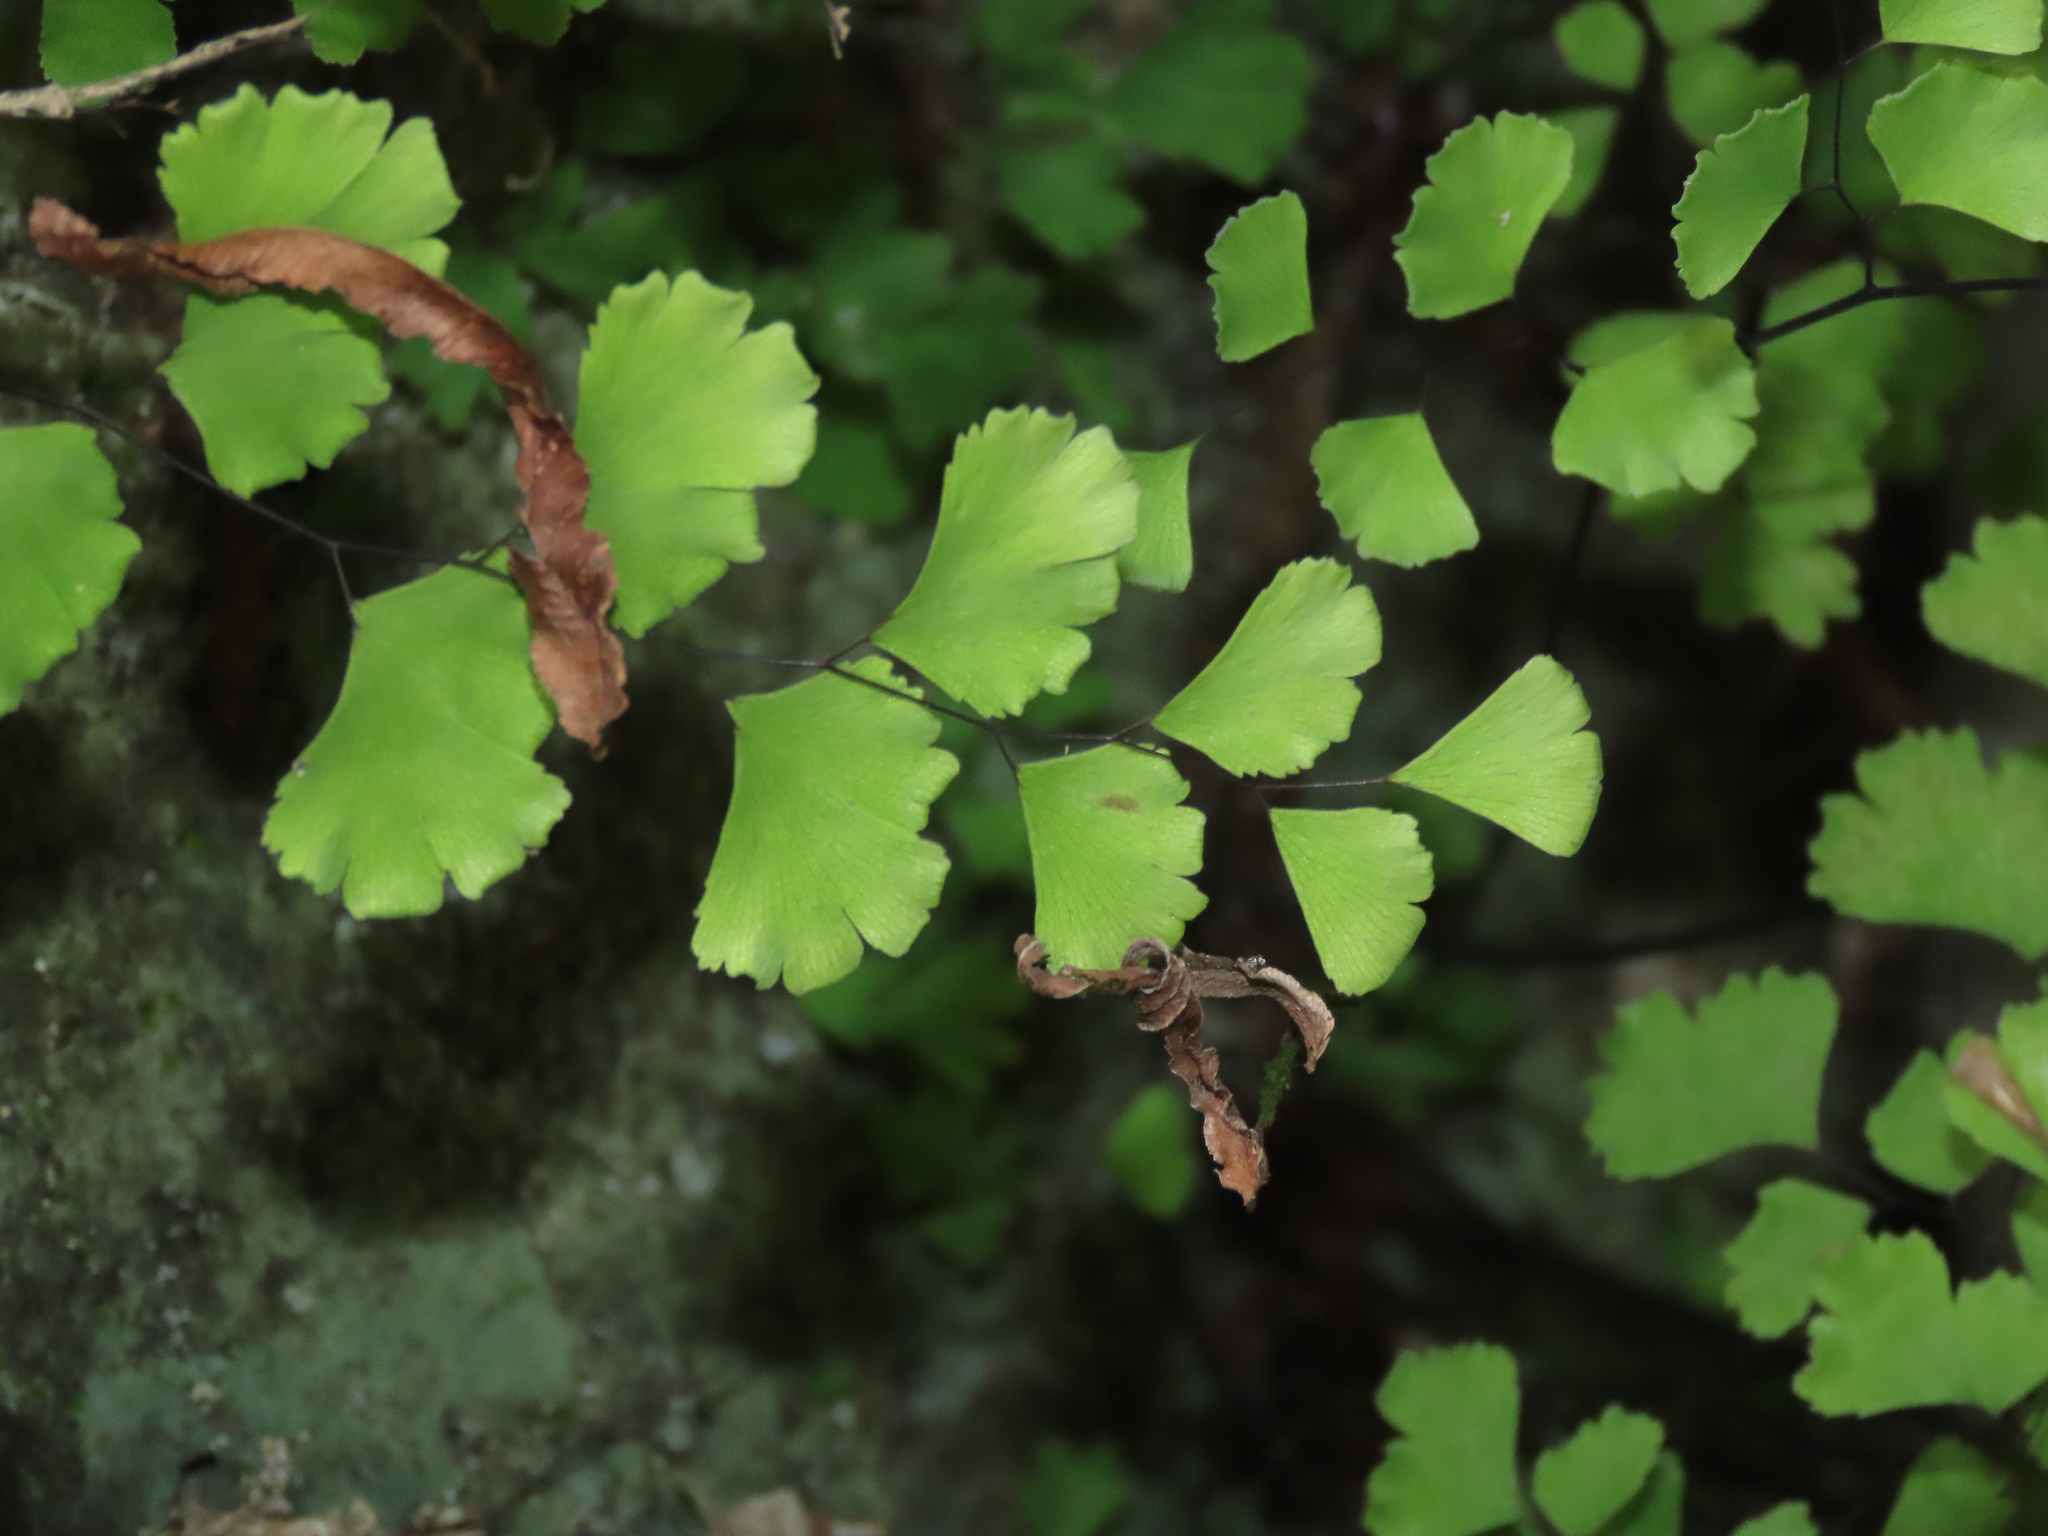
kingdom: Plantae
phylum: Tracheophyta
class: Polypodiopsida
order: Polypodiales
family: Pteridaceae
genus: Adiantum
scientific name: Adiantum capillus-veneris
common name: Maidenhair fern
